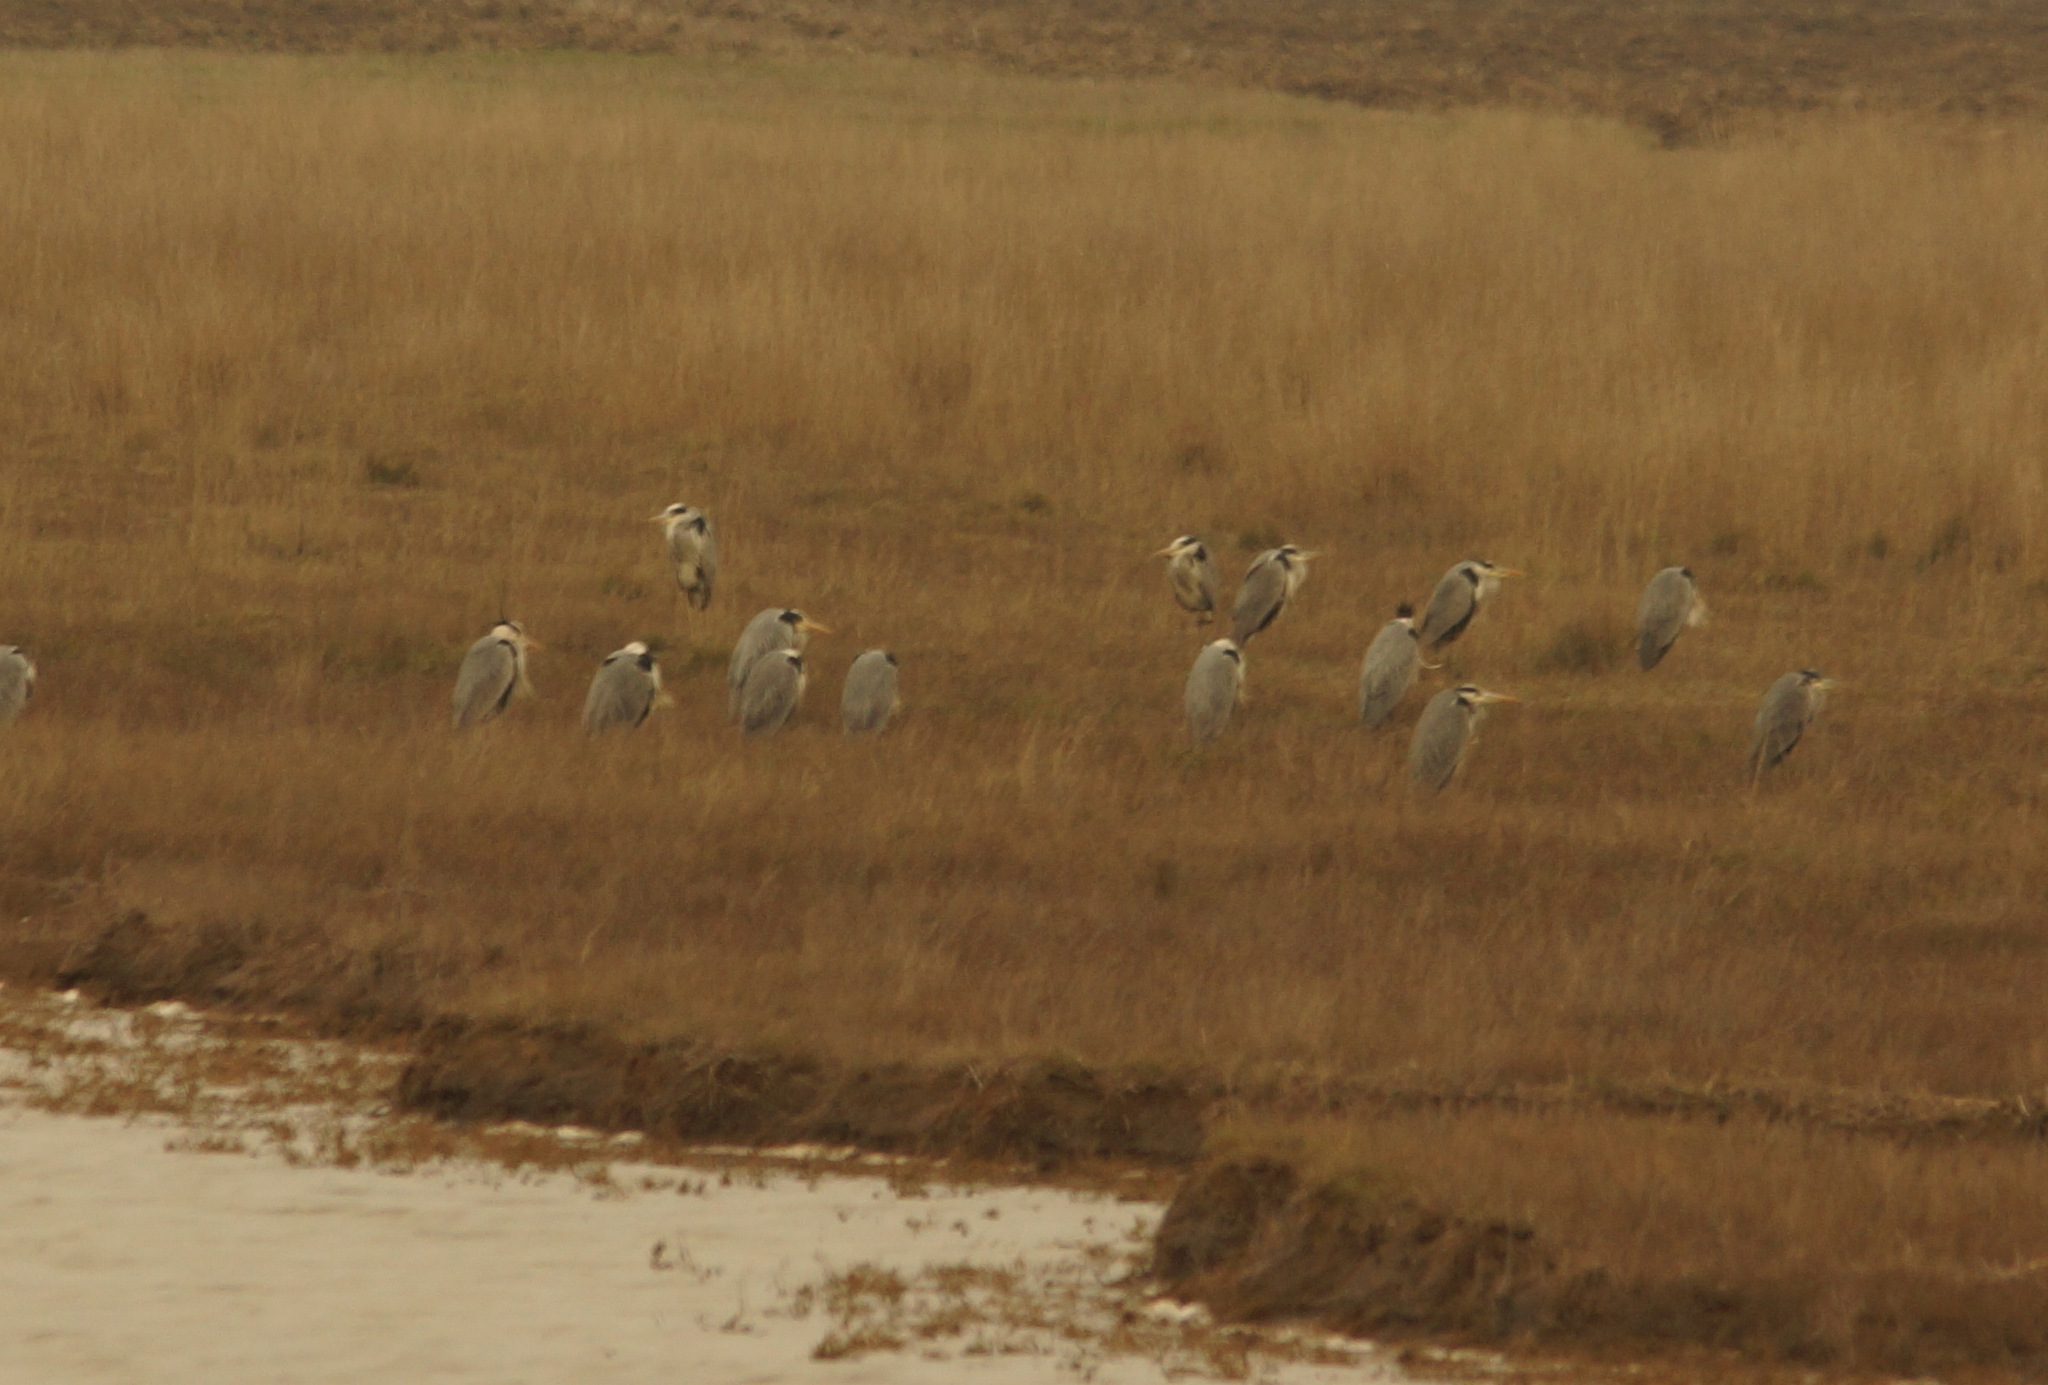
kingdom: Animalia
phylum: Chordata
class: Aves
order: Pelecaniformes
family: Ardeidae
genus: Ardea
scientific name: Ardea cinerea
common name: Grey heron
